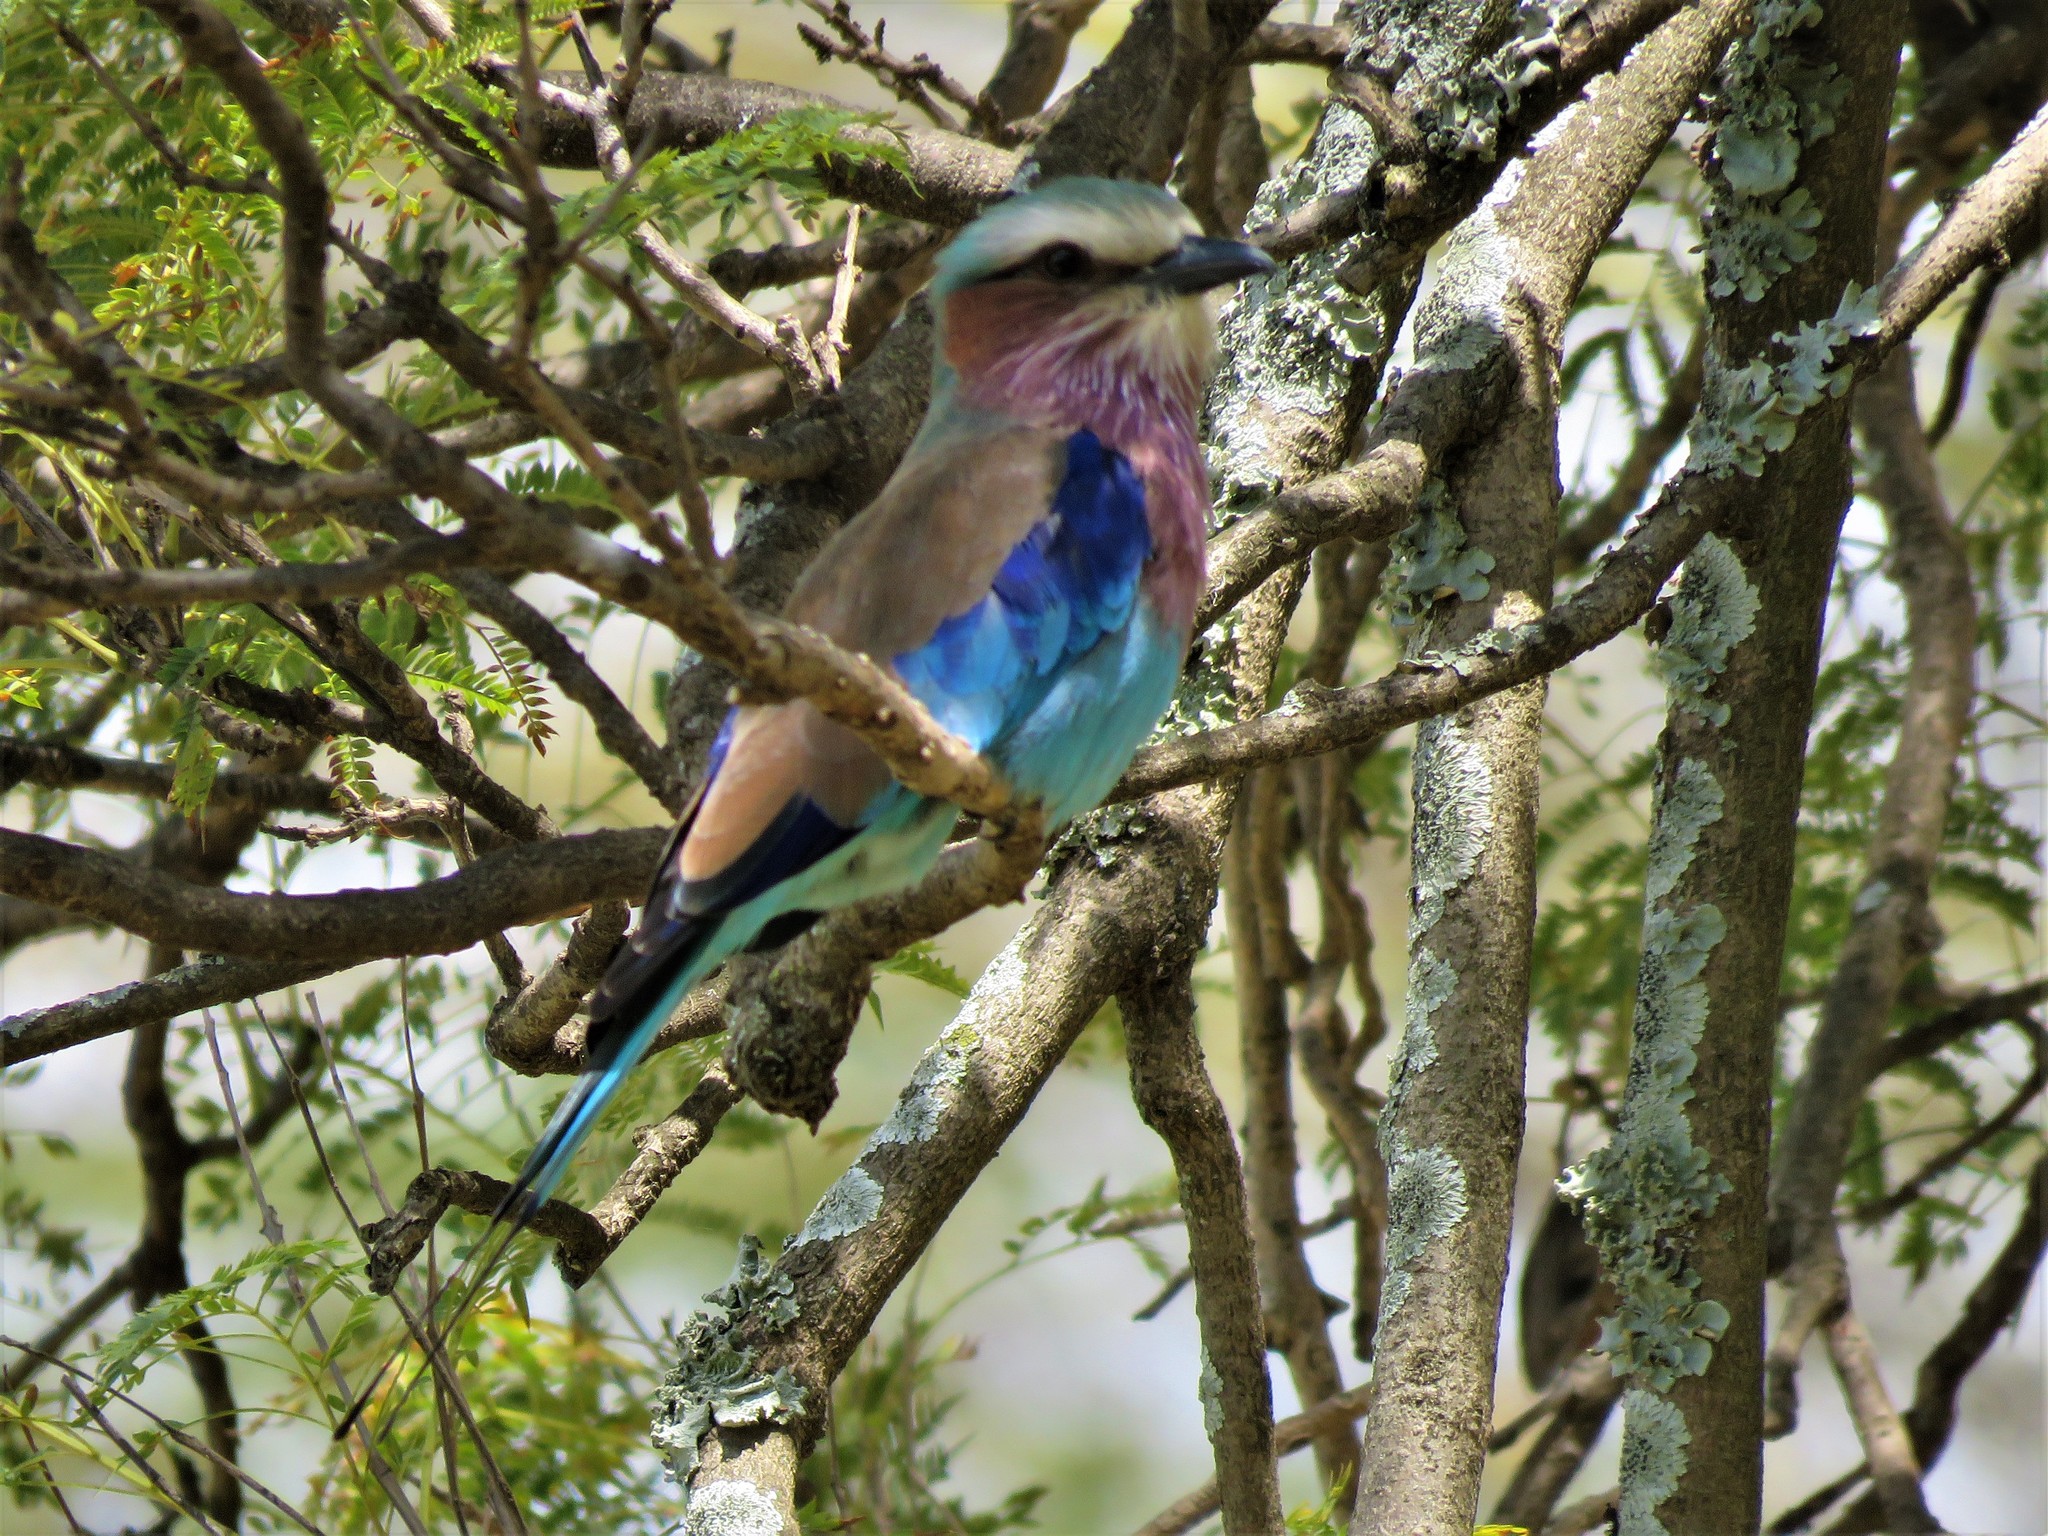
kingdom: Animalia
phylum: Chordata
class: Aves
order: Coraciiformes
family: Coraciidae
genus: Coracias
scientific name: Coracias caudatus
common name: Lilac-breasted roller
